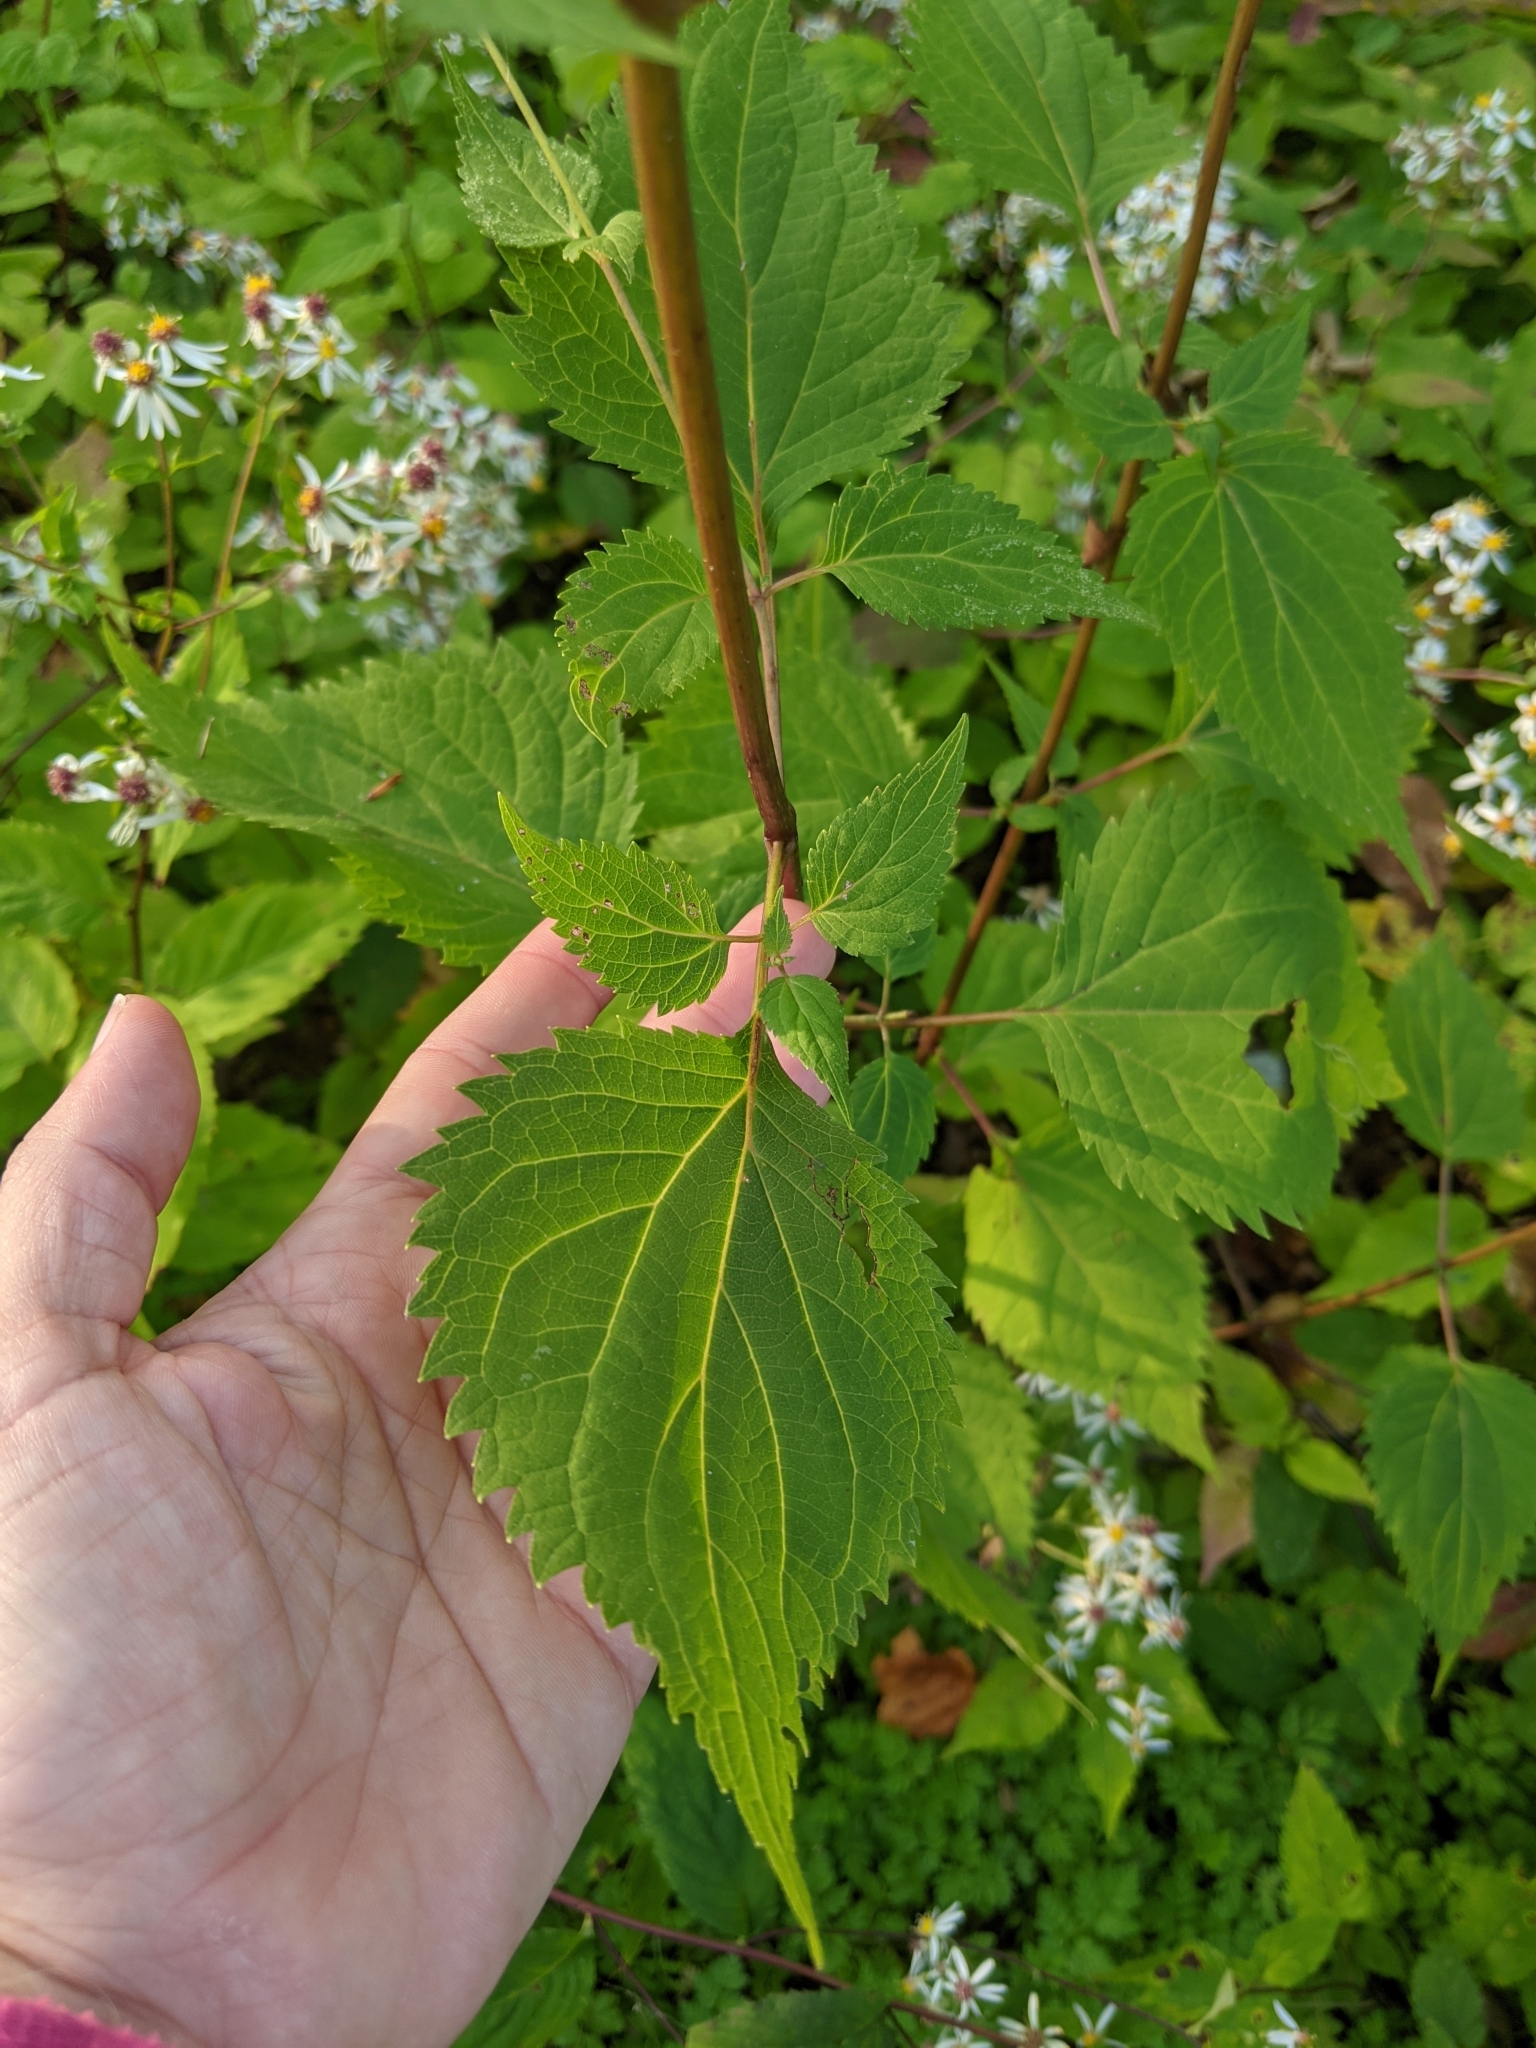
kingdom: Plantae
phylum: Tracheophyta
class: Magnoliopsida
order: Asterales
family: Asteraceae
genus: Ageratina
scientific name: Ageratina altissima
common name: White snakeroot
